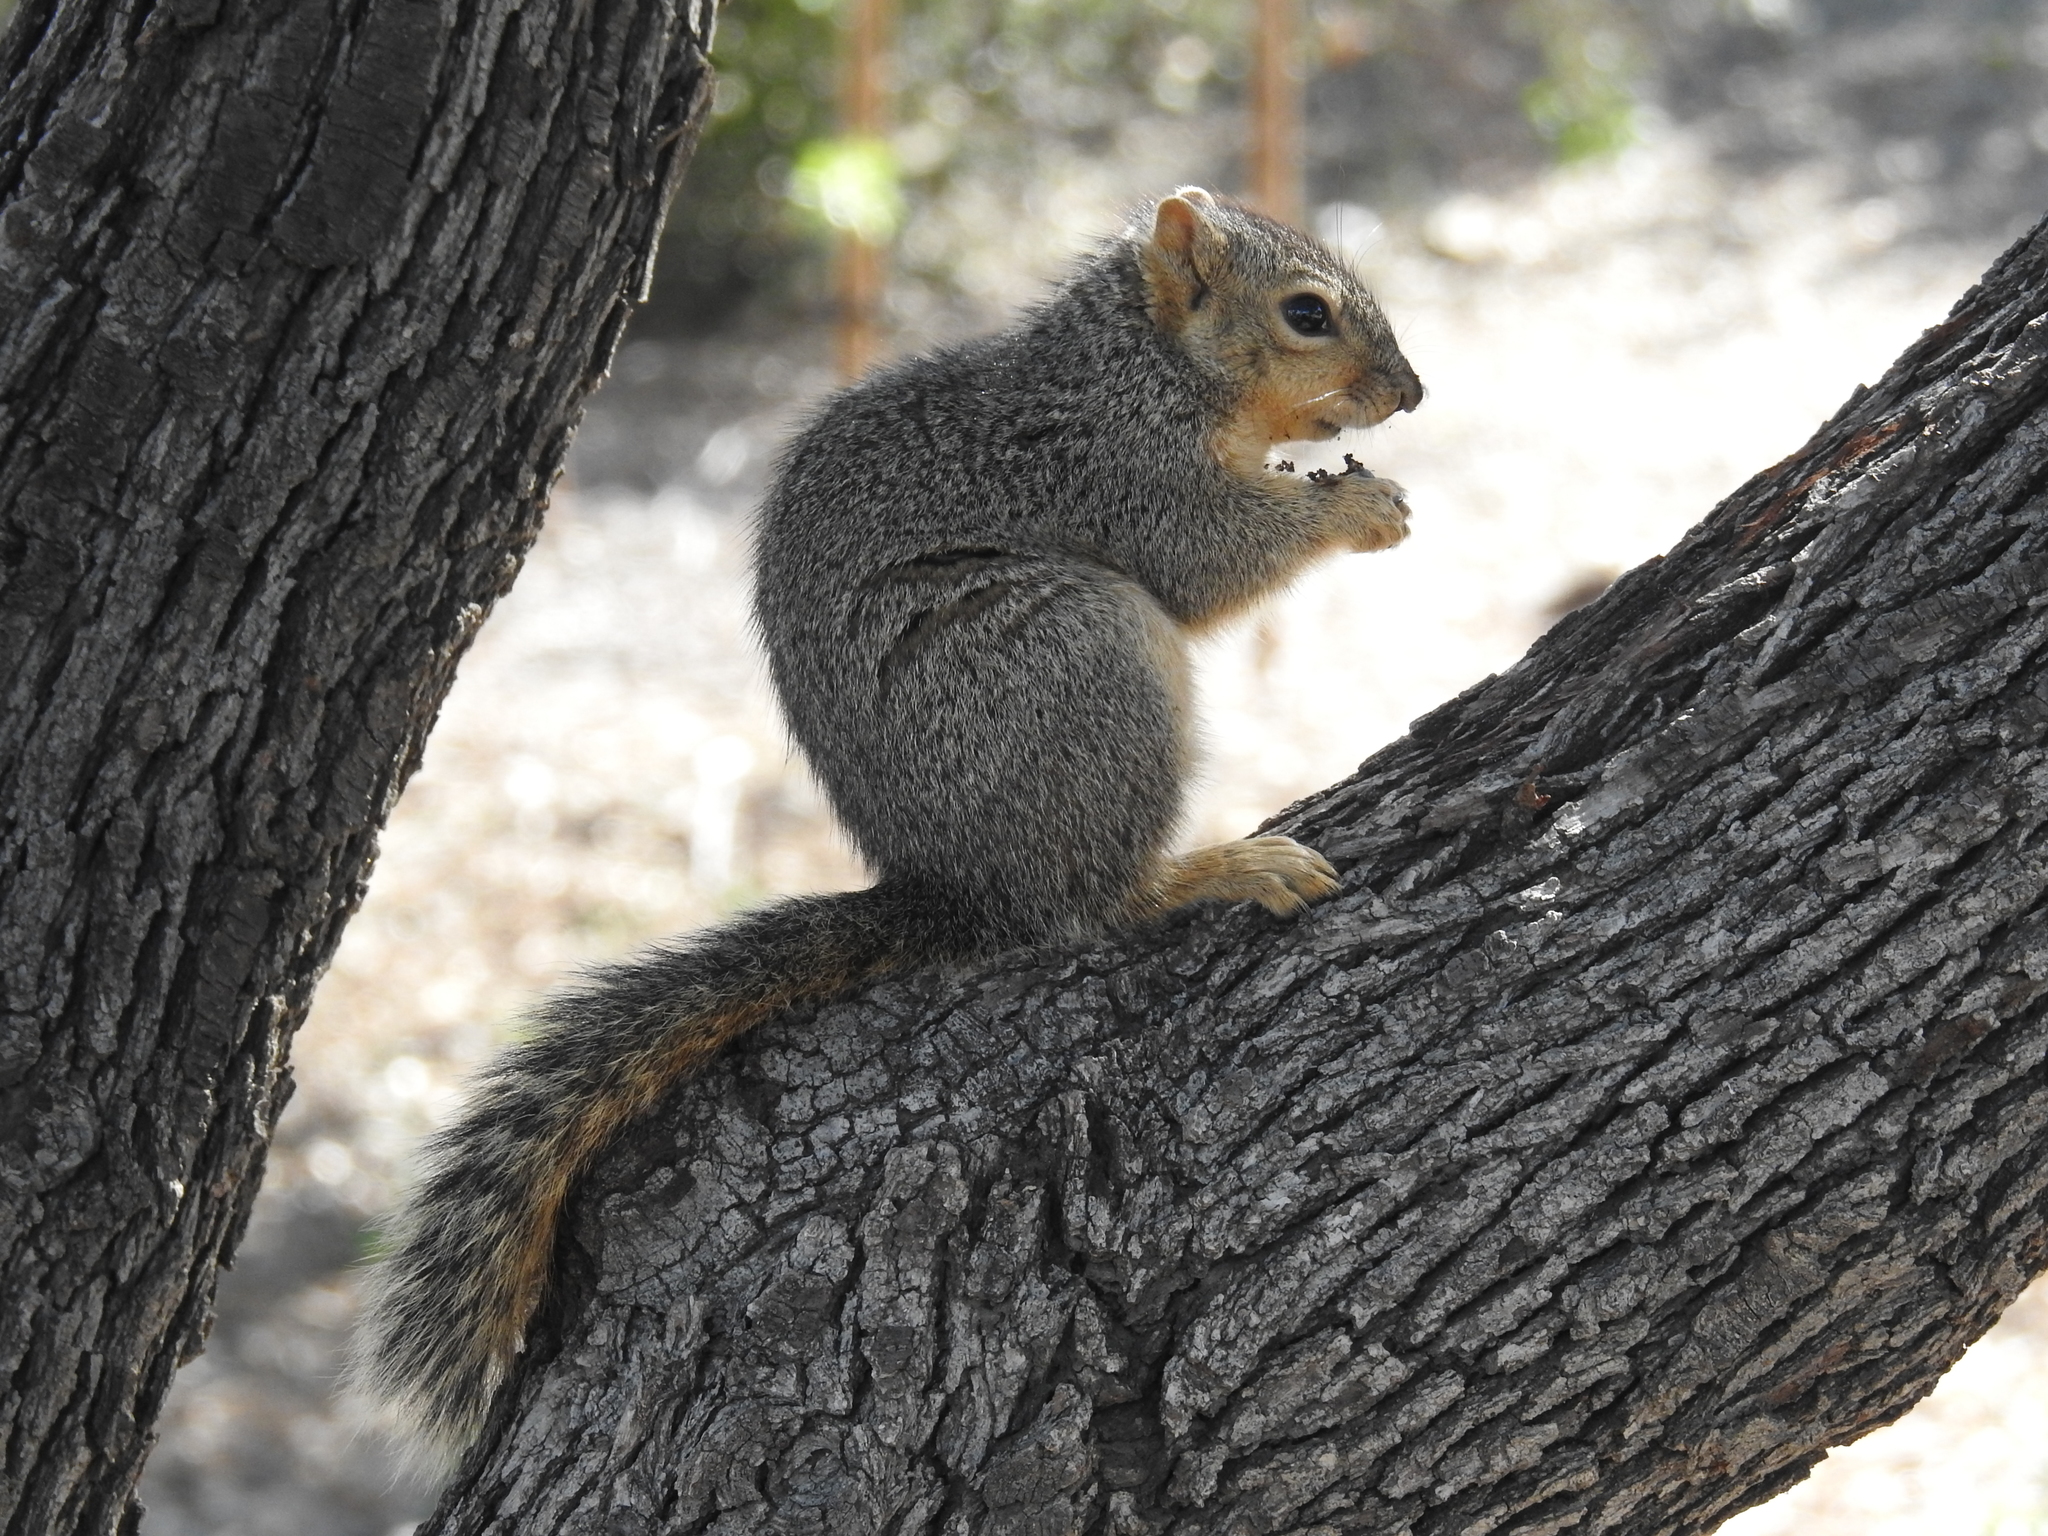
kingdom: Animalia
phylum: Chordata
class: Mammalia
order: Rodentia
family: Sciuridae
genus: Sciurus
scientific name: Sciurus niger
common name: Fox squirrel
